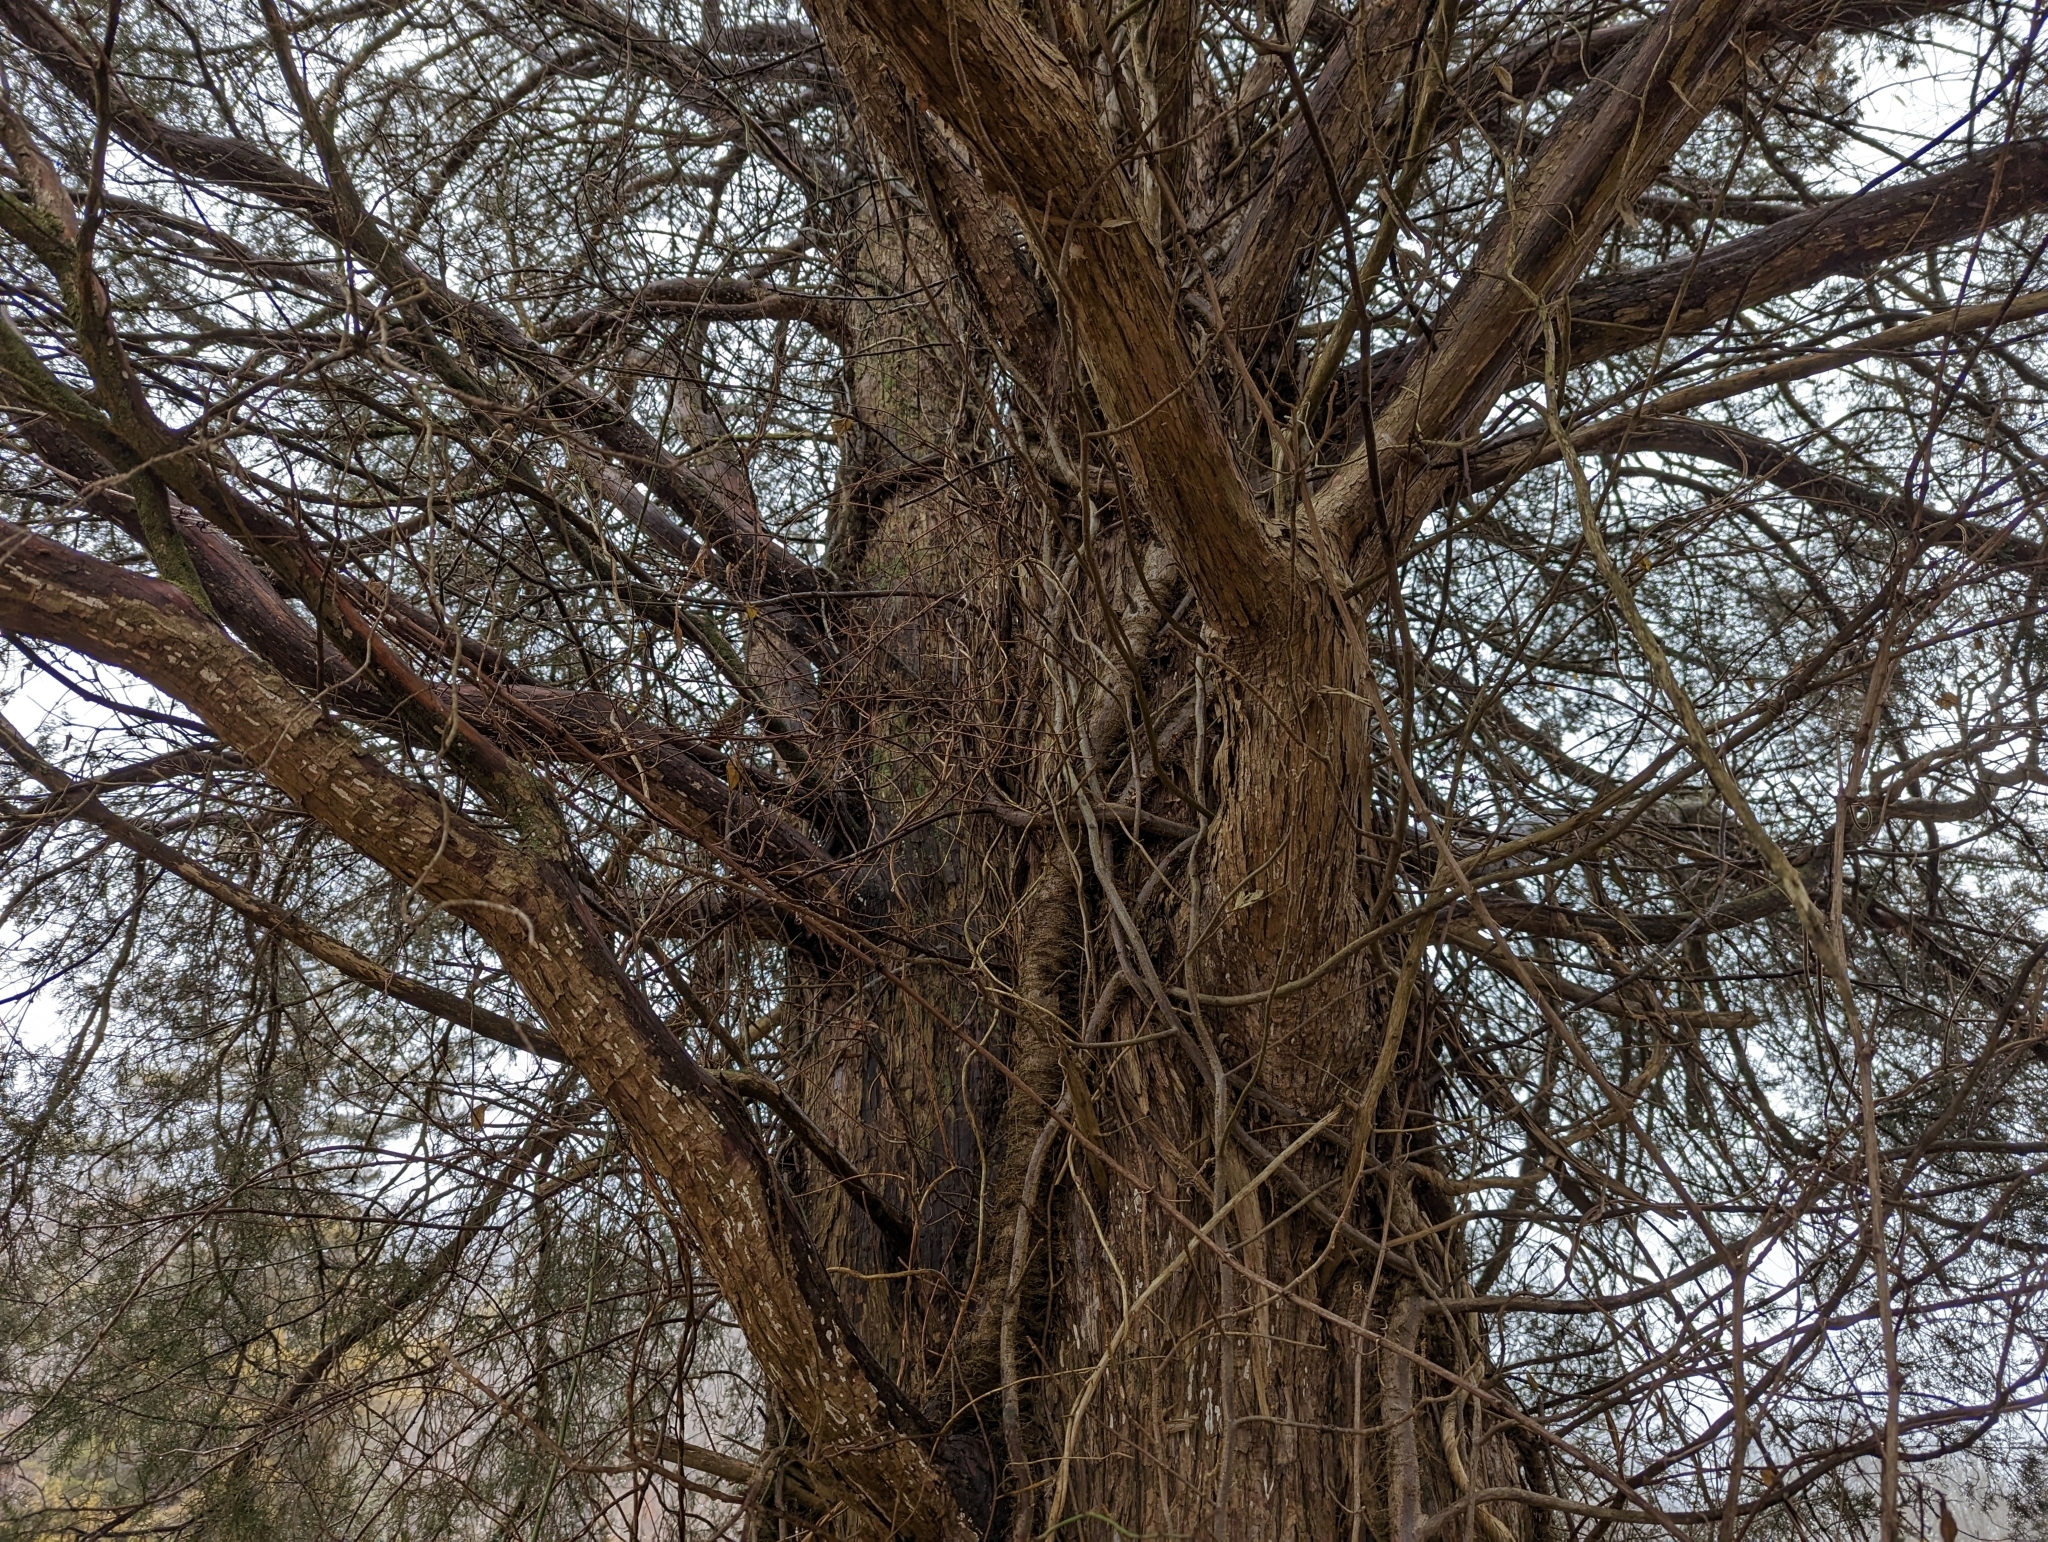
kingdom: Plantae
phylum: Tracheophyta
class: Pinopsida
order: Pinales
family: Cupressaceae
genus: Juniperus
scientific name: Juniperus virginiana
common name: Red juniper
